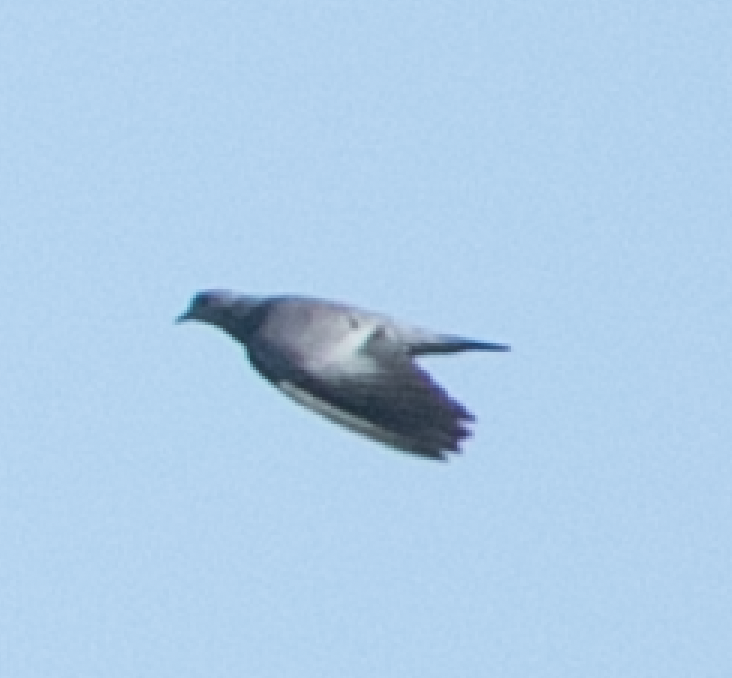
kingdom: Animalia
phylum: Chordata
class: Aves
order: Columbiformes
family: Columbidae
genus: Columba
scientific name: Columba oenas
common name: Stock dove
